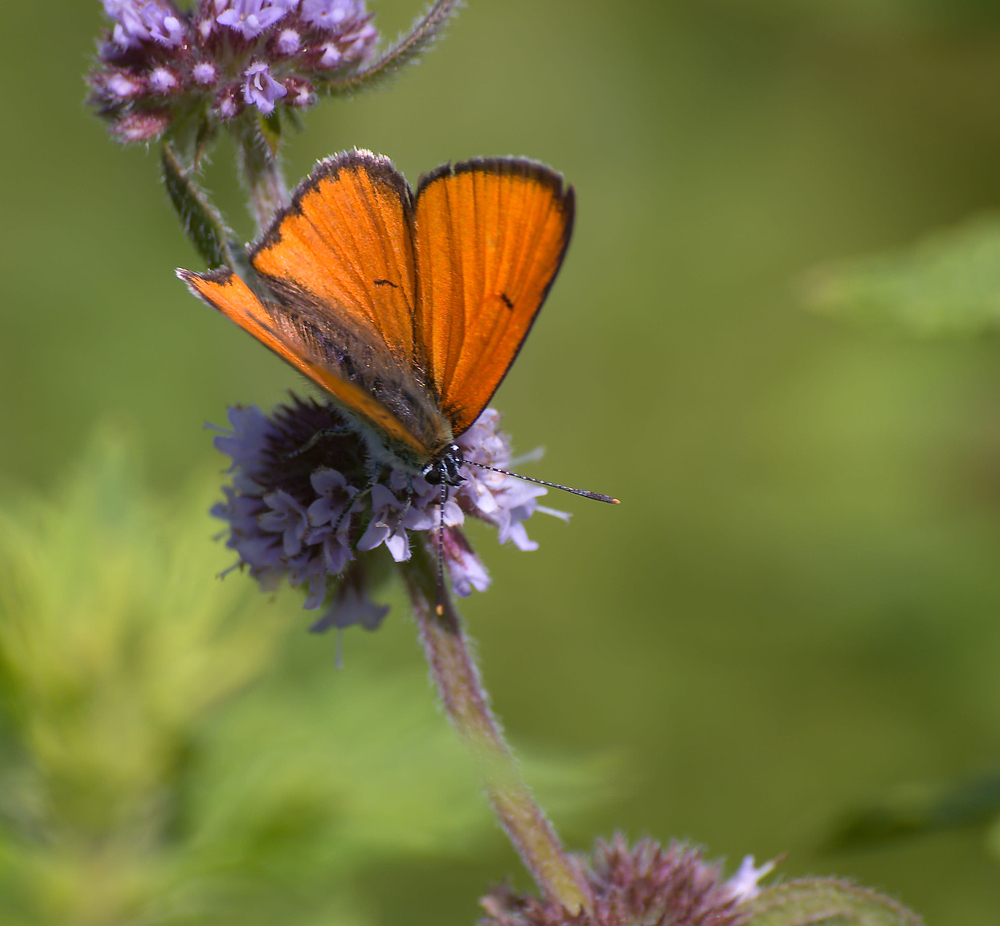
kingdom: Animalia
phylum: Arthropoda
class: Insecta
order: Lepidoptera
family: Lycaenidae
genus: Lycaena
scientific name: Lycaena dispar
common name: Large copper
